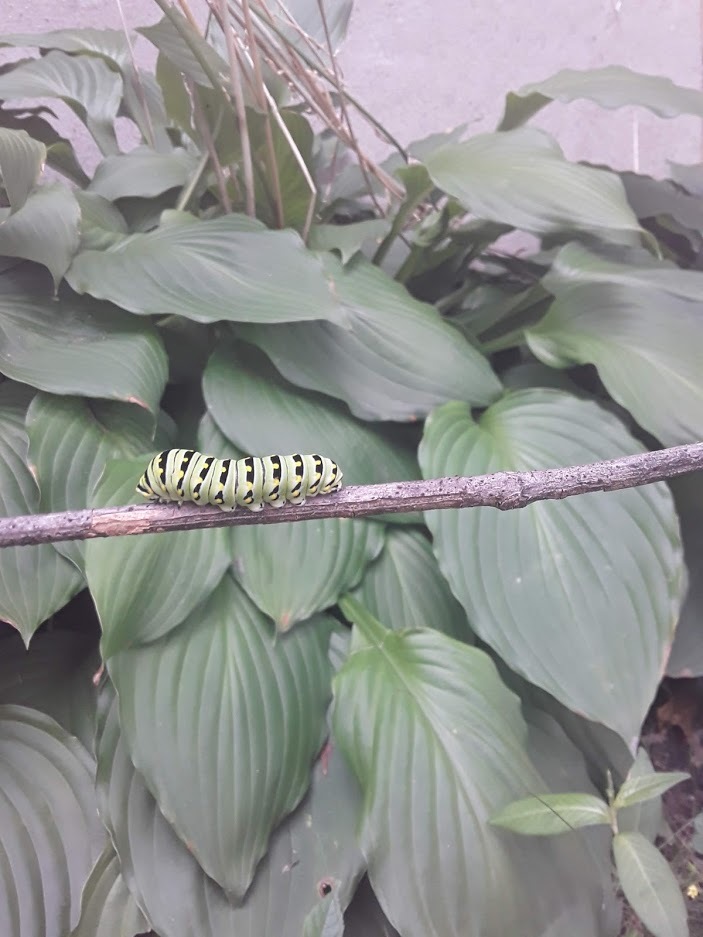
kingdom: Animalia
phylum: Arthropoda
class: Insecta
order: Lepidoptera
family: Papilionidae
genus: Papilio
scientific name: Papilio polyxenes
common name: Black swallowtail
